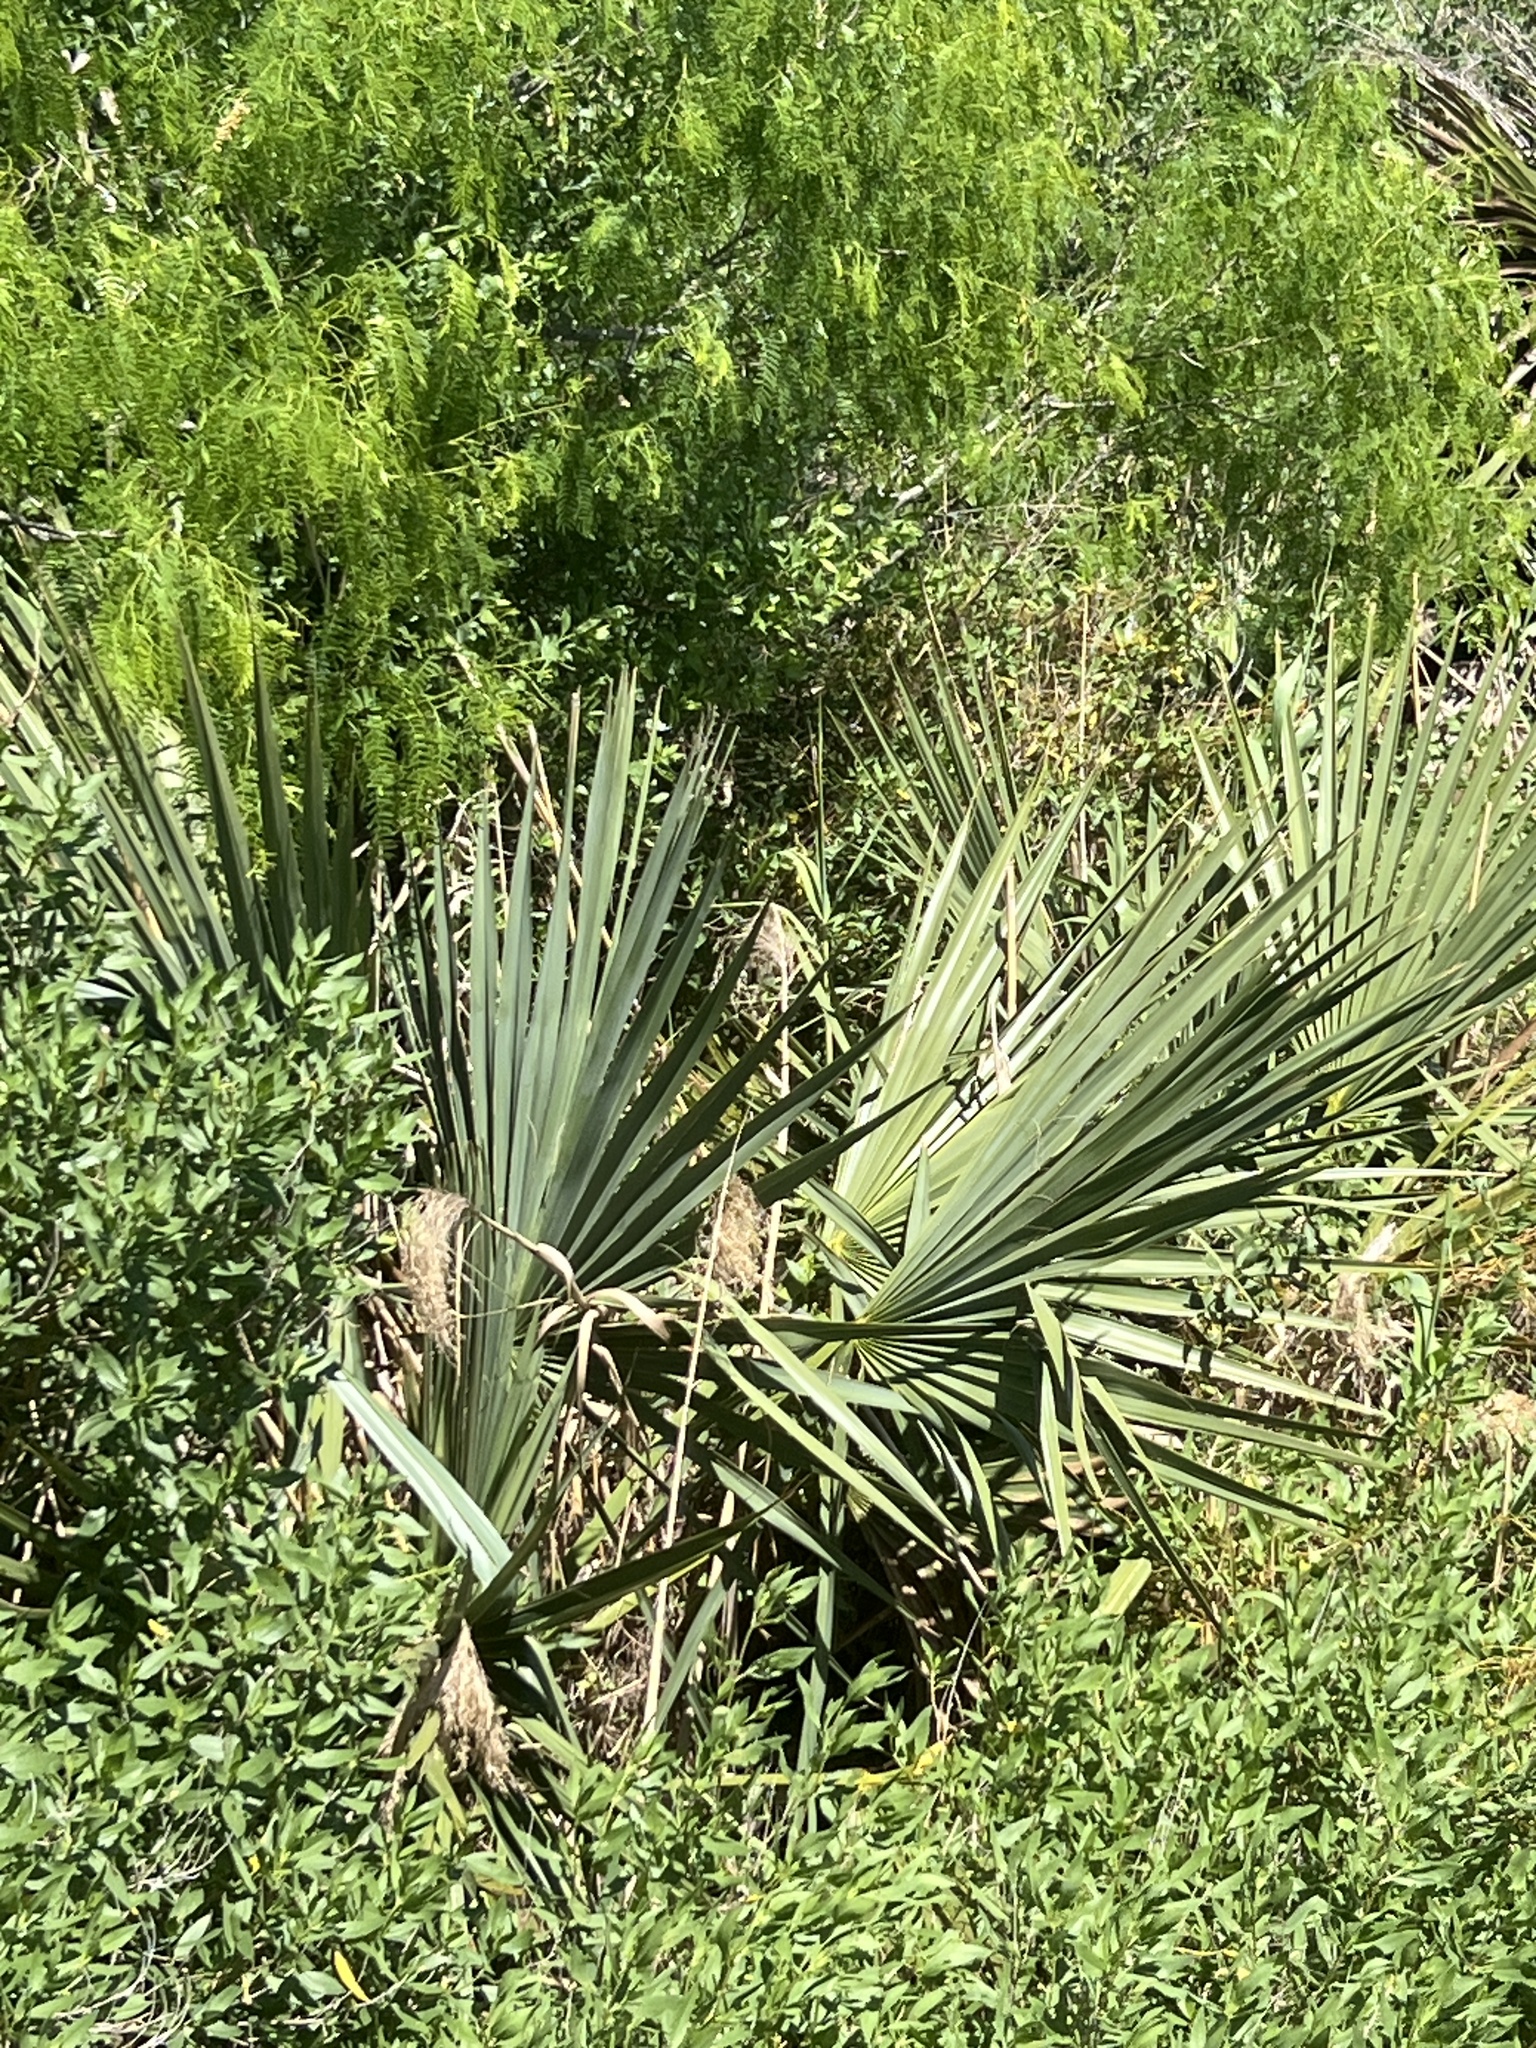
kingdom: Plantae
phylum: Tracheophyta
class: Liliopsida
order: Arecales
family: Arecaceae
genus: Sabal
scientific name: Sabal minor
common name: Dwarf palmetto
